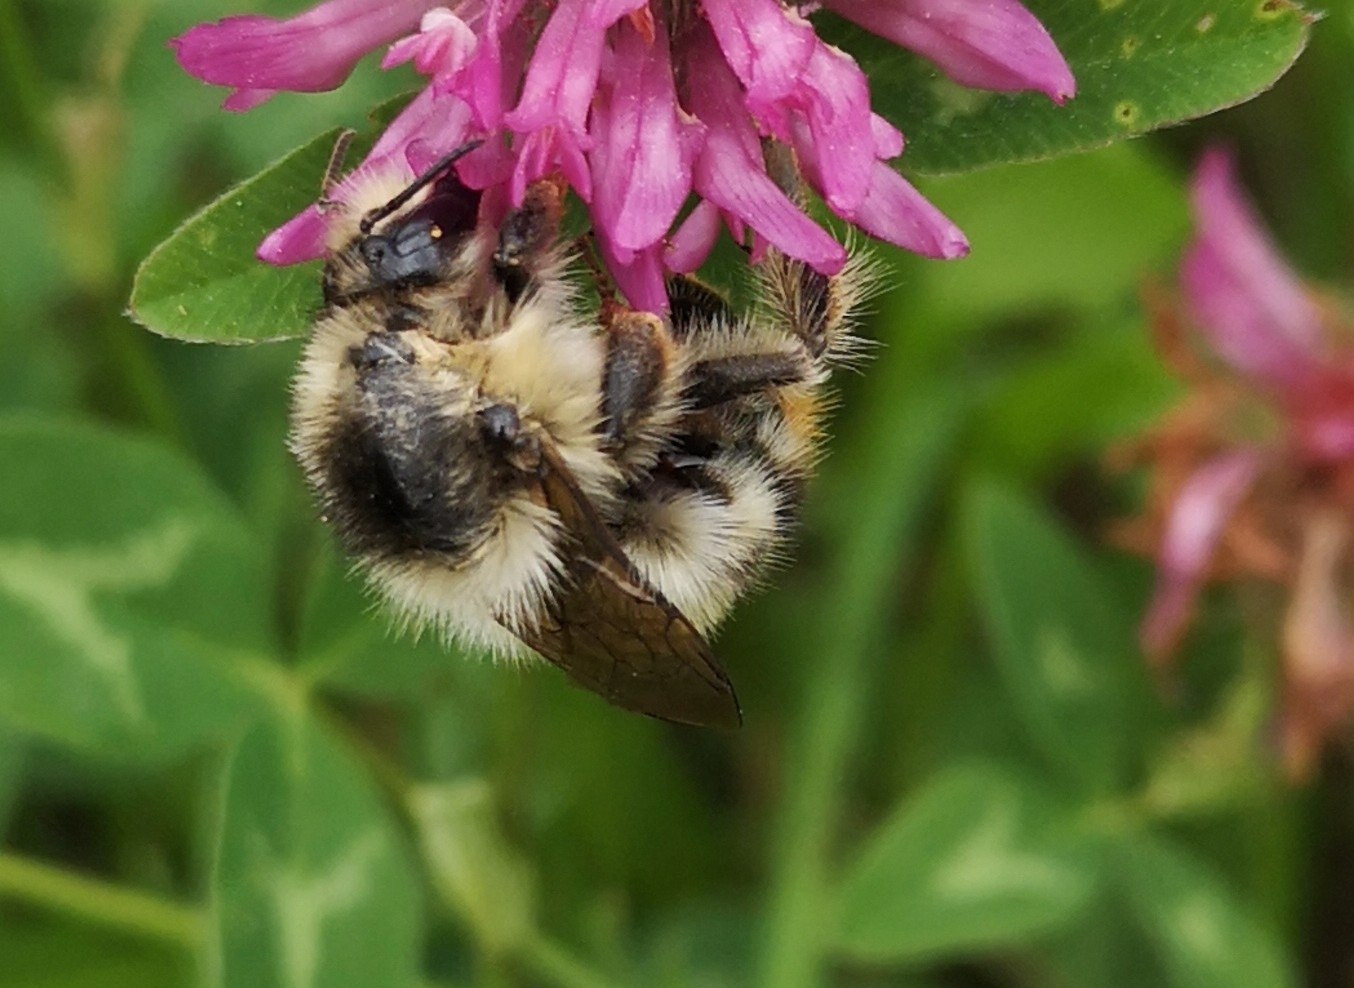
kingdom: Animalia
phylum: Arthropoda
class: Insecta
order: Hymenoptera
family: Apidae
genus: Bombus
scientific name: Bombus sylvarum
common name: Shrill carder bee
